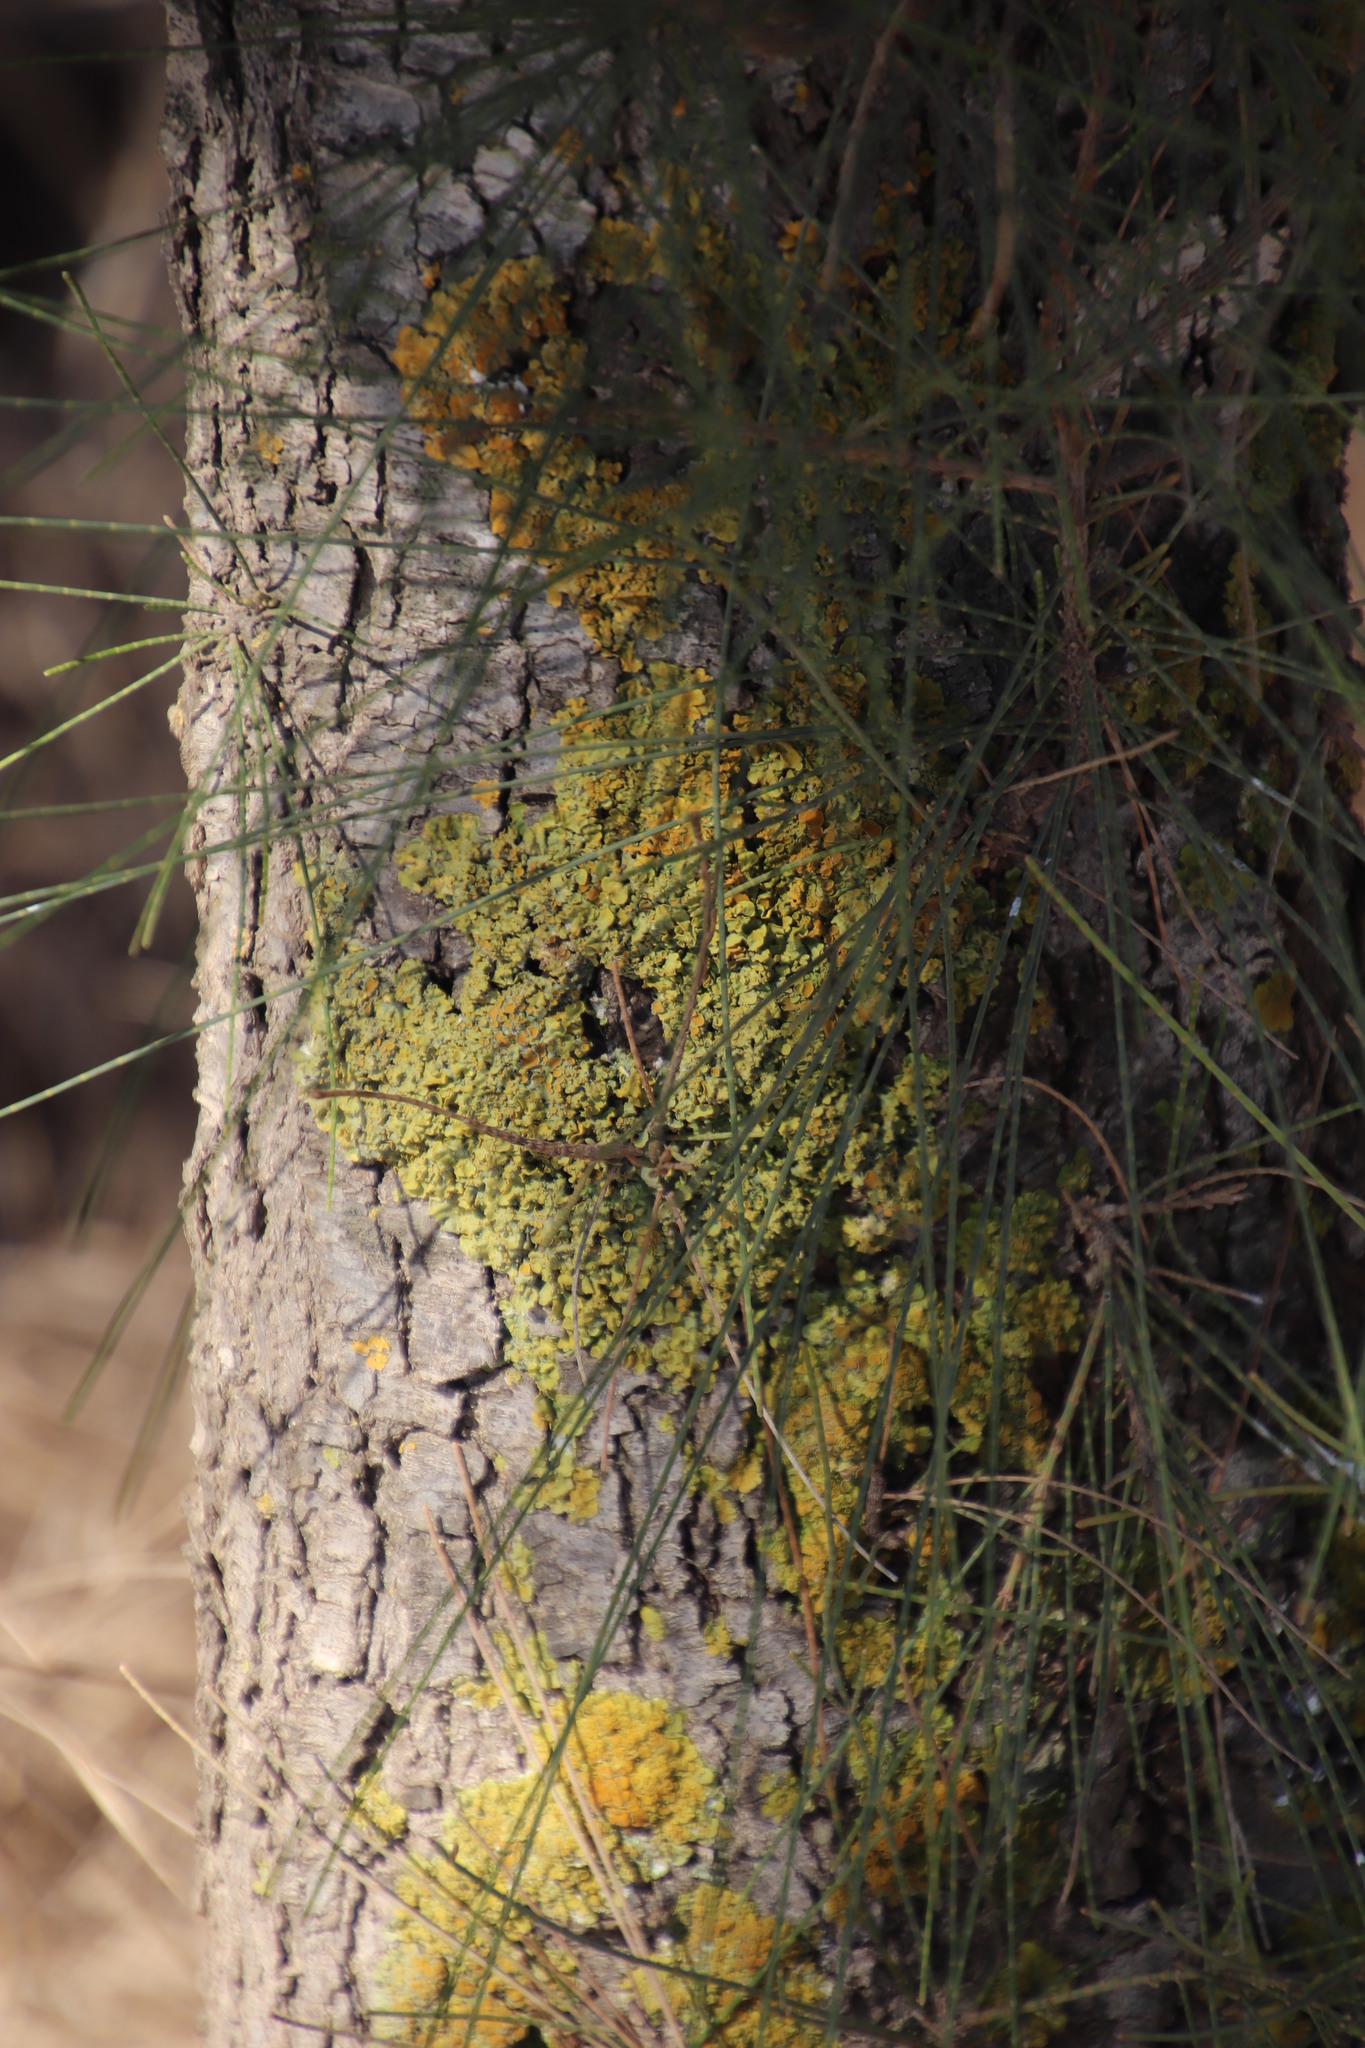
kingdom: Fungi
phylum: Ascomycota
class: Lecanoromycetes
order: Teloschistales
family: Teloschistaceae
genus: Xanthoria
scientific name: Xanthoria parietina
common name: Common orange lichen
